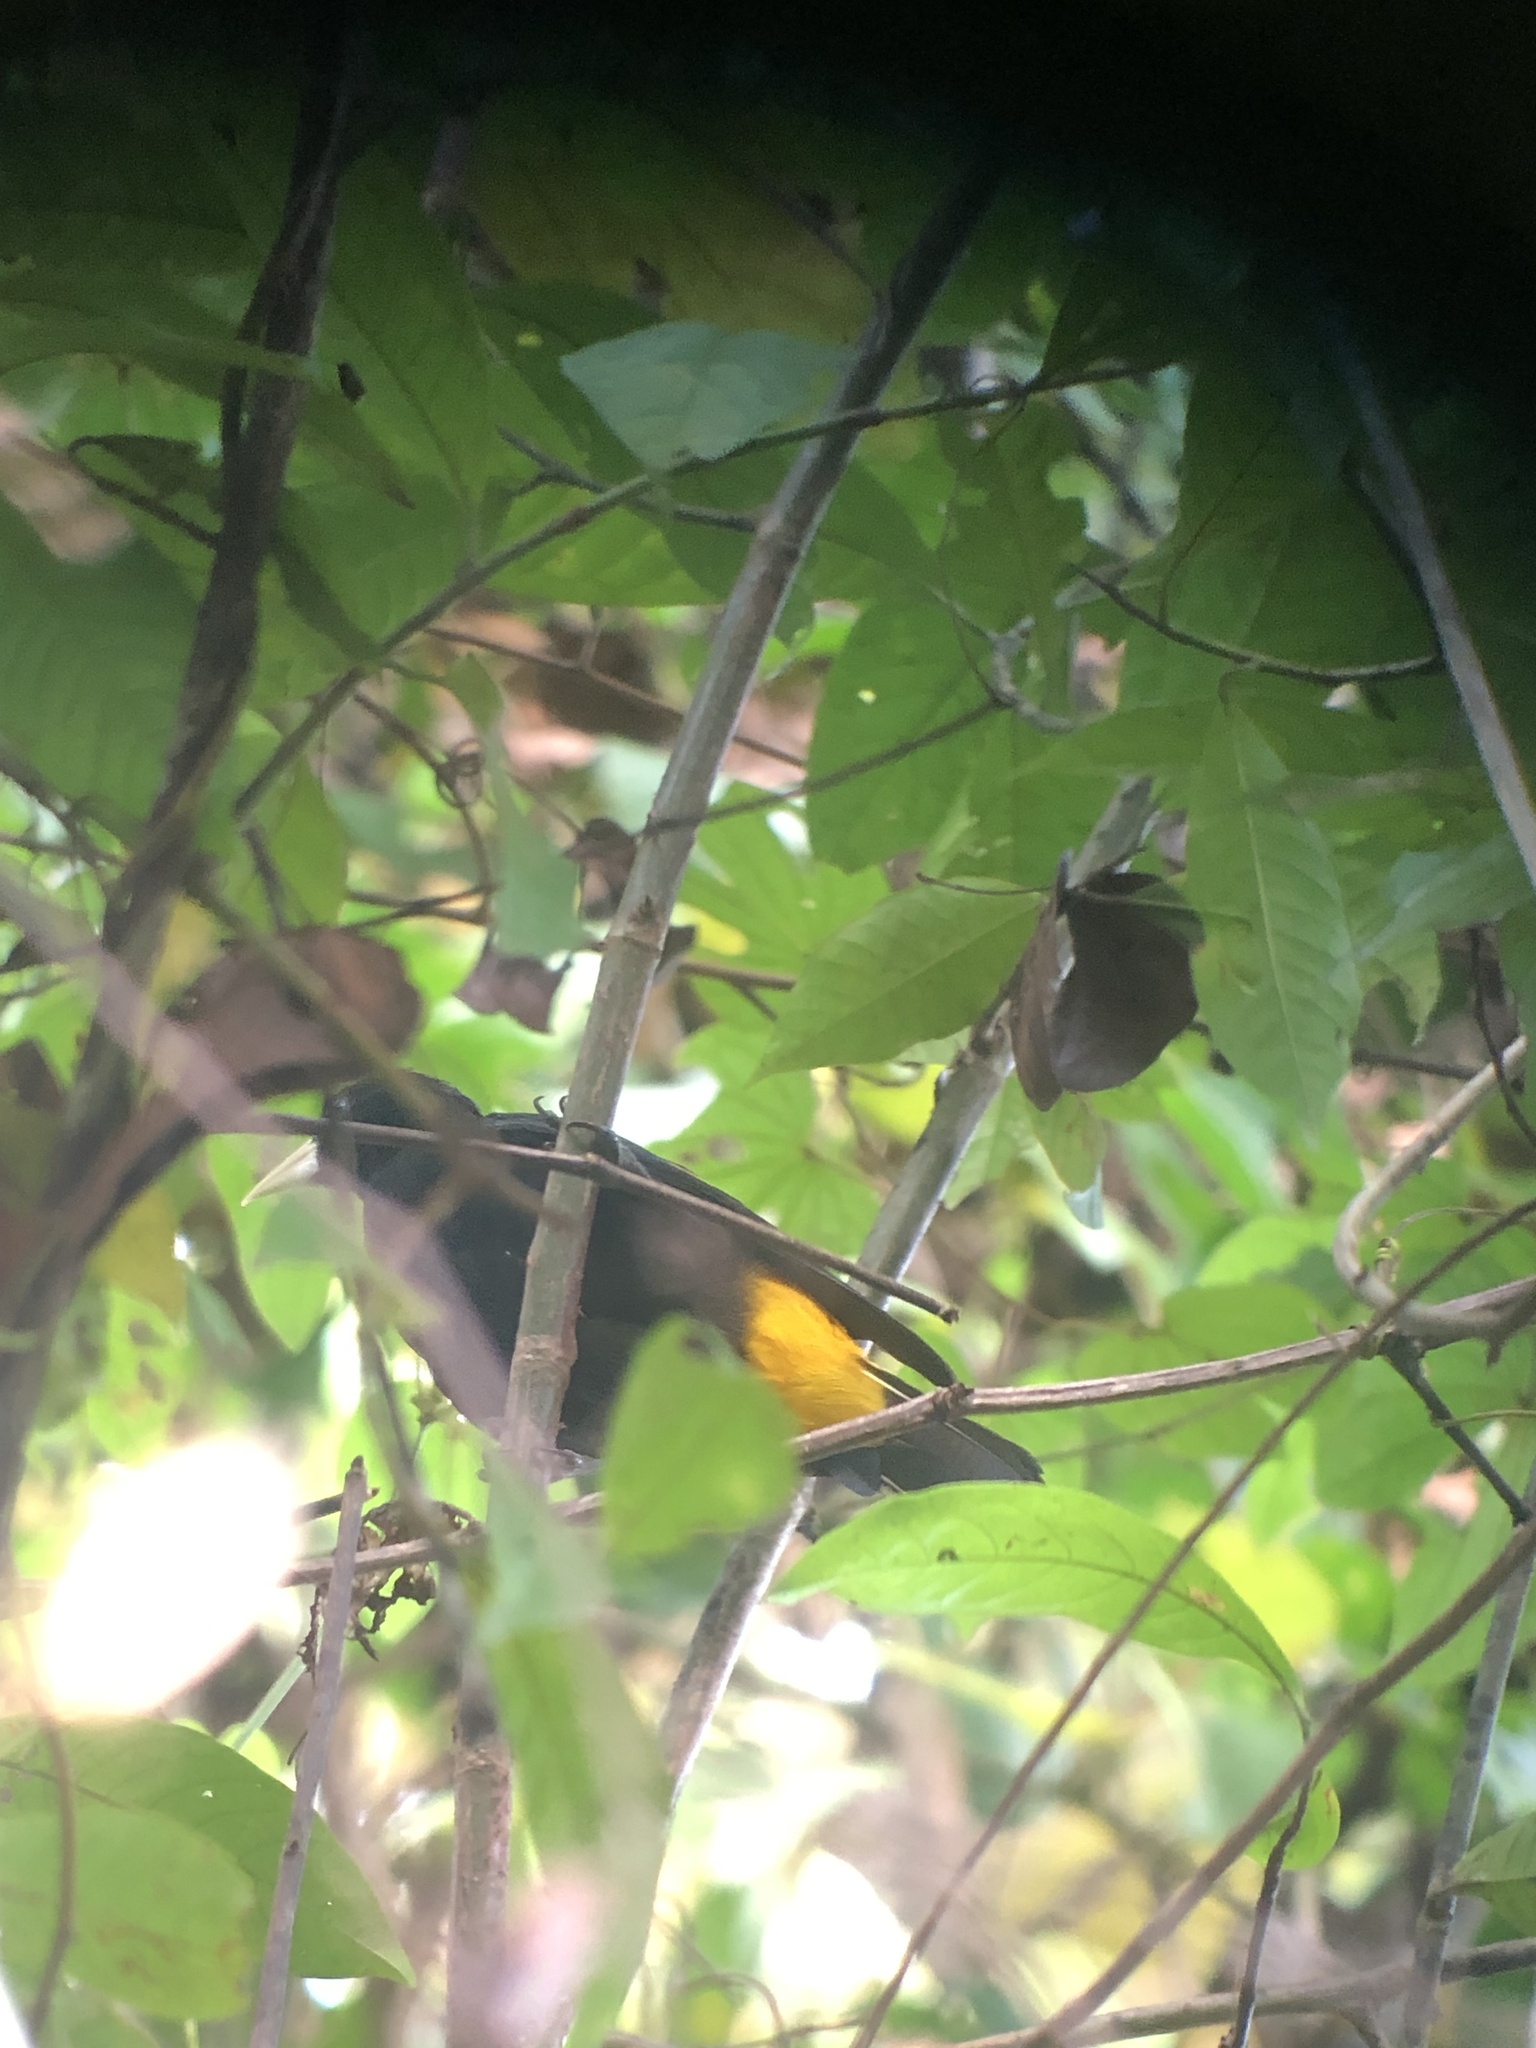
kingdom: Animalia
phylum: Chordata
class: Aves
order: Passeriformes
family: Icteridae
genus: Cacicus
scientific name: Cacicus cela
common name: Yellow-rumped cacique
